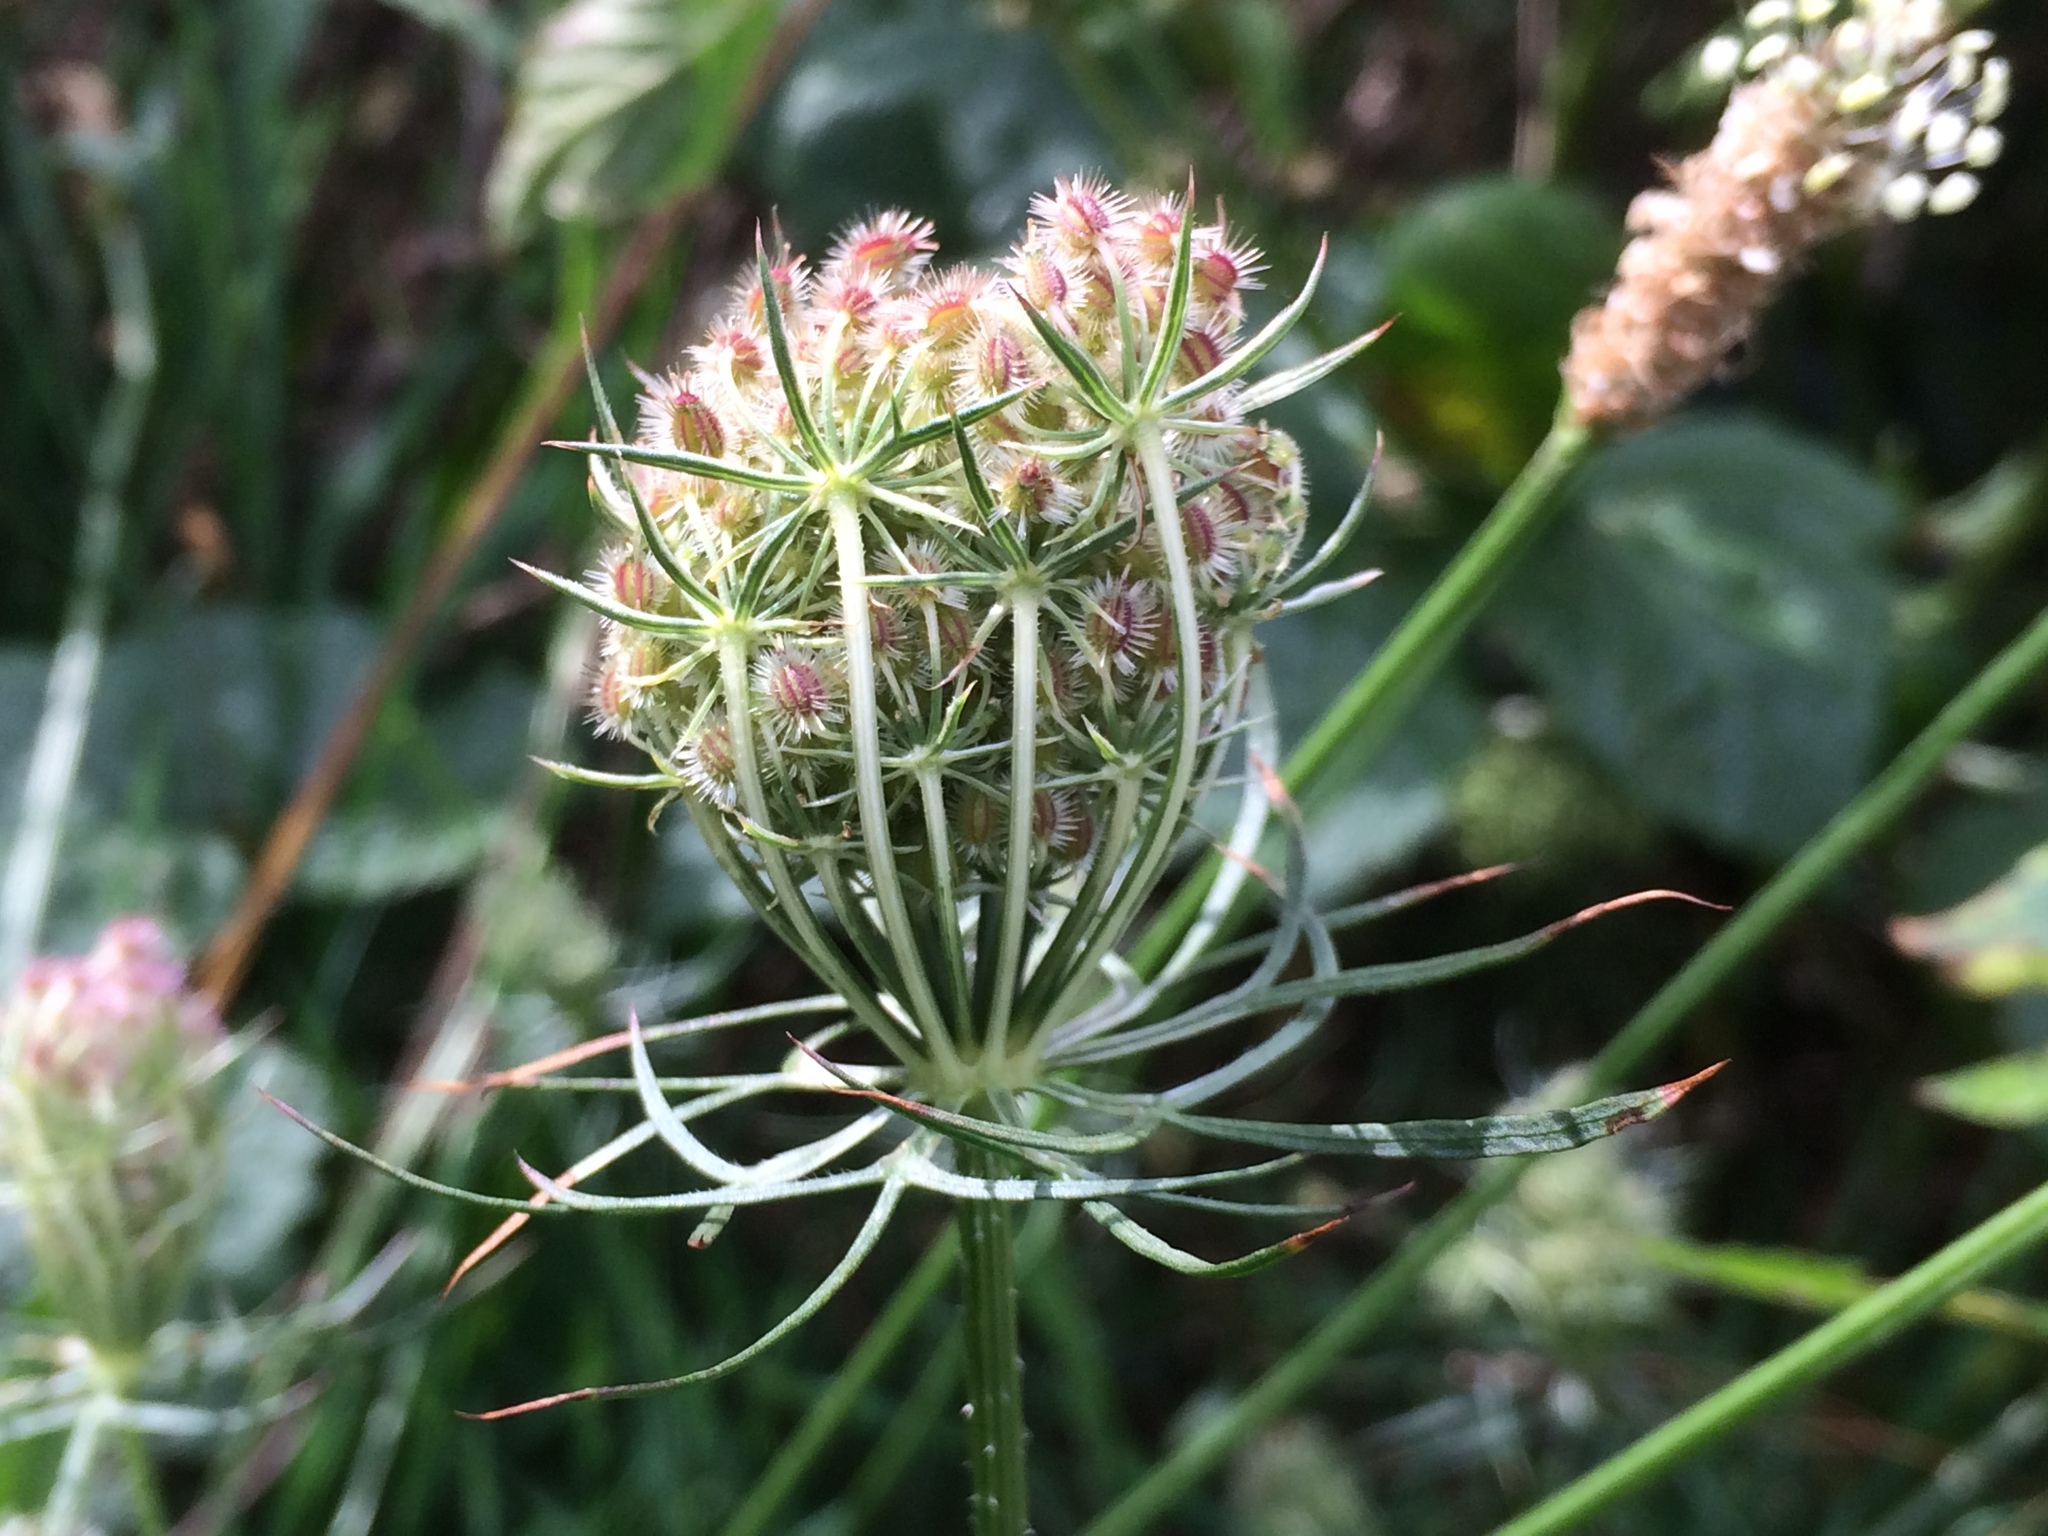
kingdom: Plantae
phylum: Tracheophyta
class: Magnoliopsida
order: Apiales
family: Apiaceae
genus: Daucus
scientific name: Daucus carota
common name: Wild carrot
